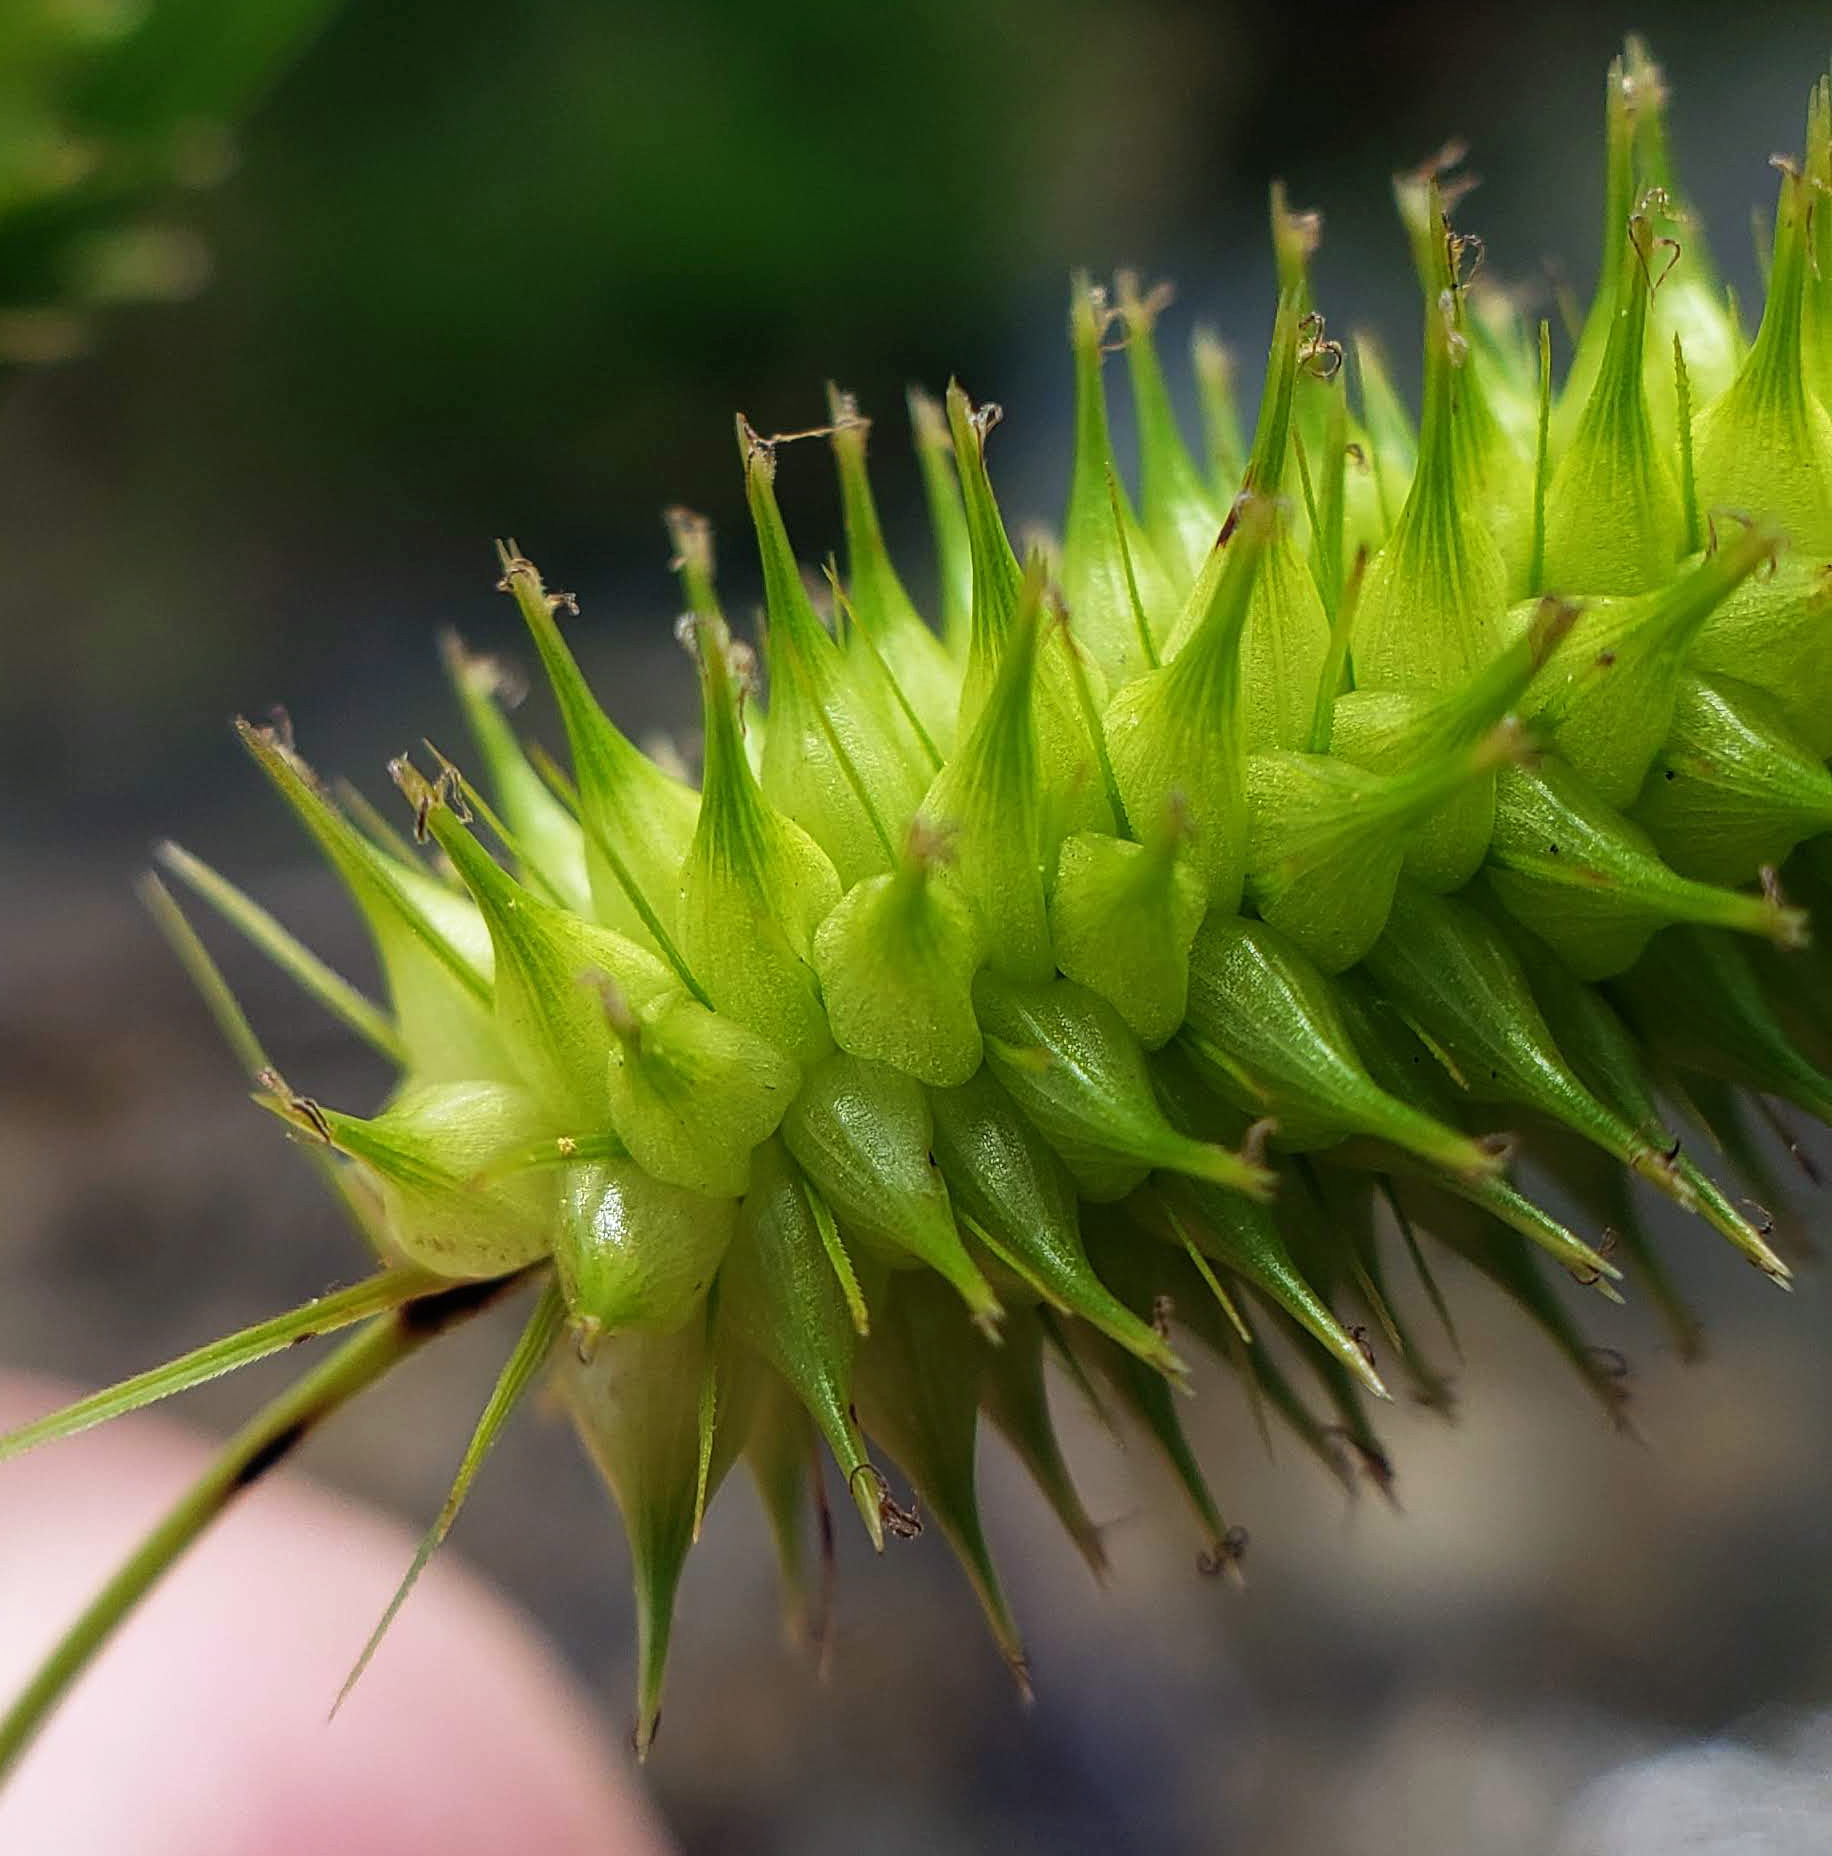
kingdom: Plantae
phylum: Tracheophyta
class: Liliopsida
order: Poales
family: Cyperaceae
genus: Carex
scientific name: Carex hystericina
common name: Bottlebrush sedge
